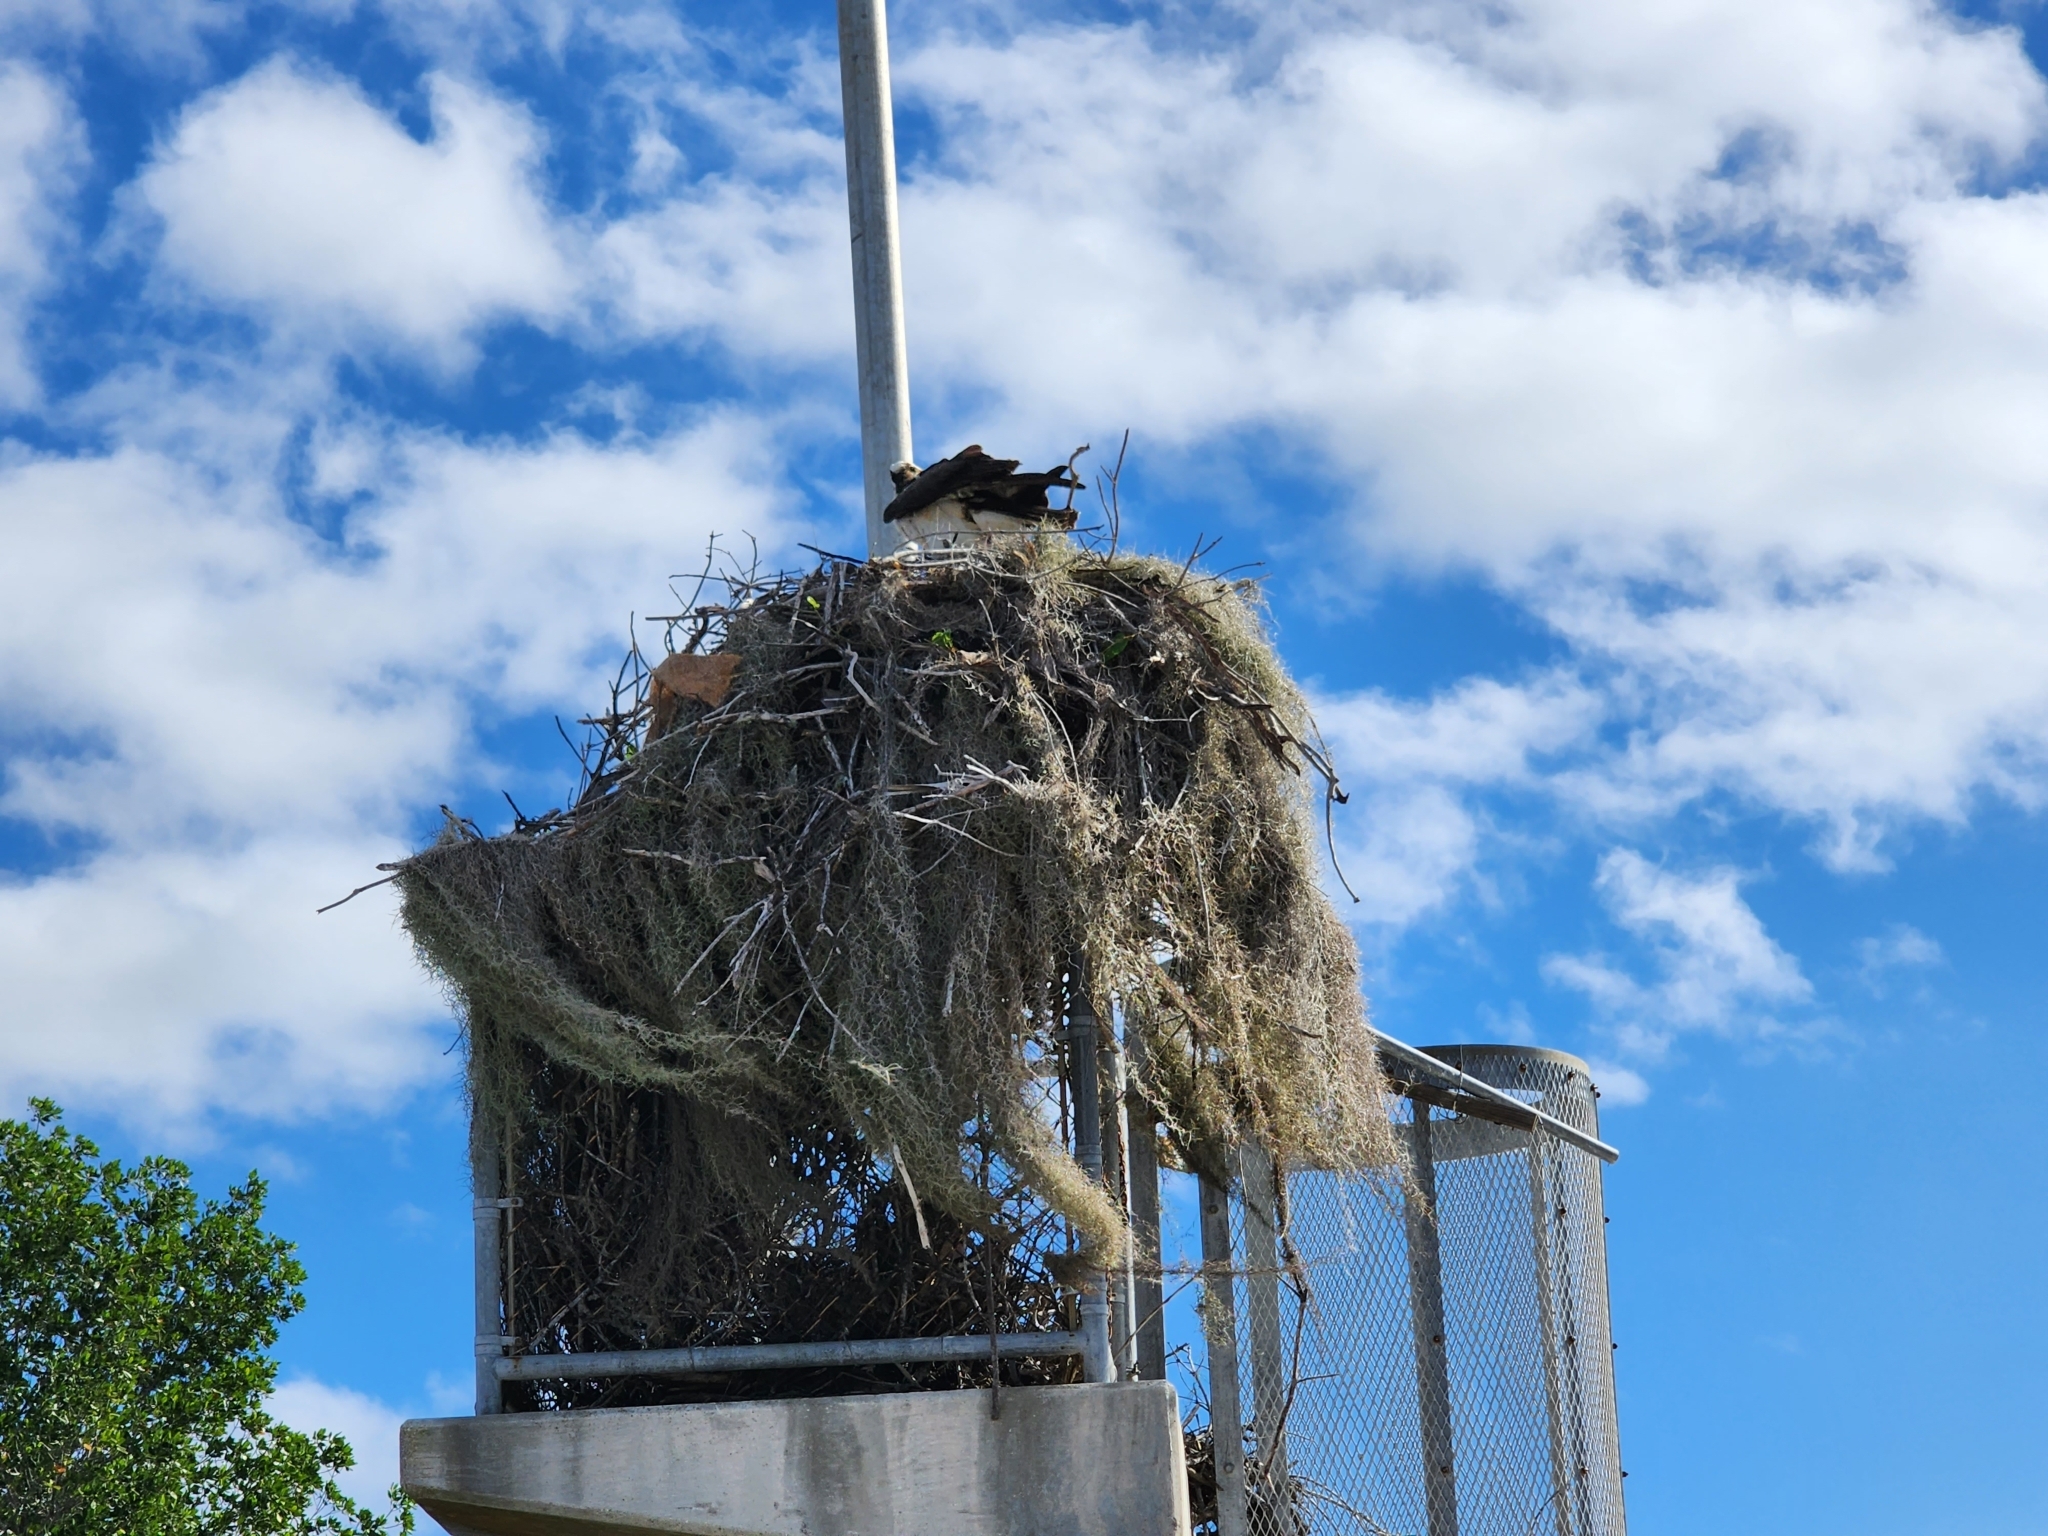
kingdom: Animalia
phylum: Chordata
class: Aves
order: Accipitriformes
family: Pandionidae
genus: Pandion
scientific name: Pandion haliaetus
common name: Osprey
